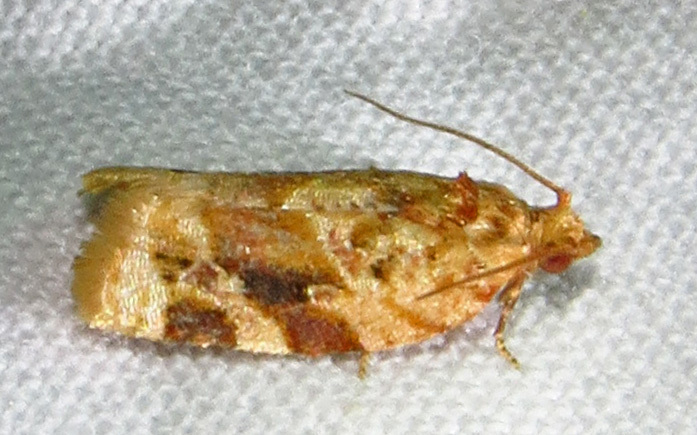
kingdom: Animalia
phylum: Arthropoda
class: Insecta
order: Lepidoptera
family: Tortricidae
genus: Argyrotaenia
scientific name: Argyrotaenia velutinana
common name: Red-banded leafroller moth
